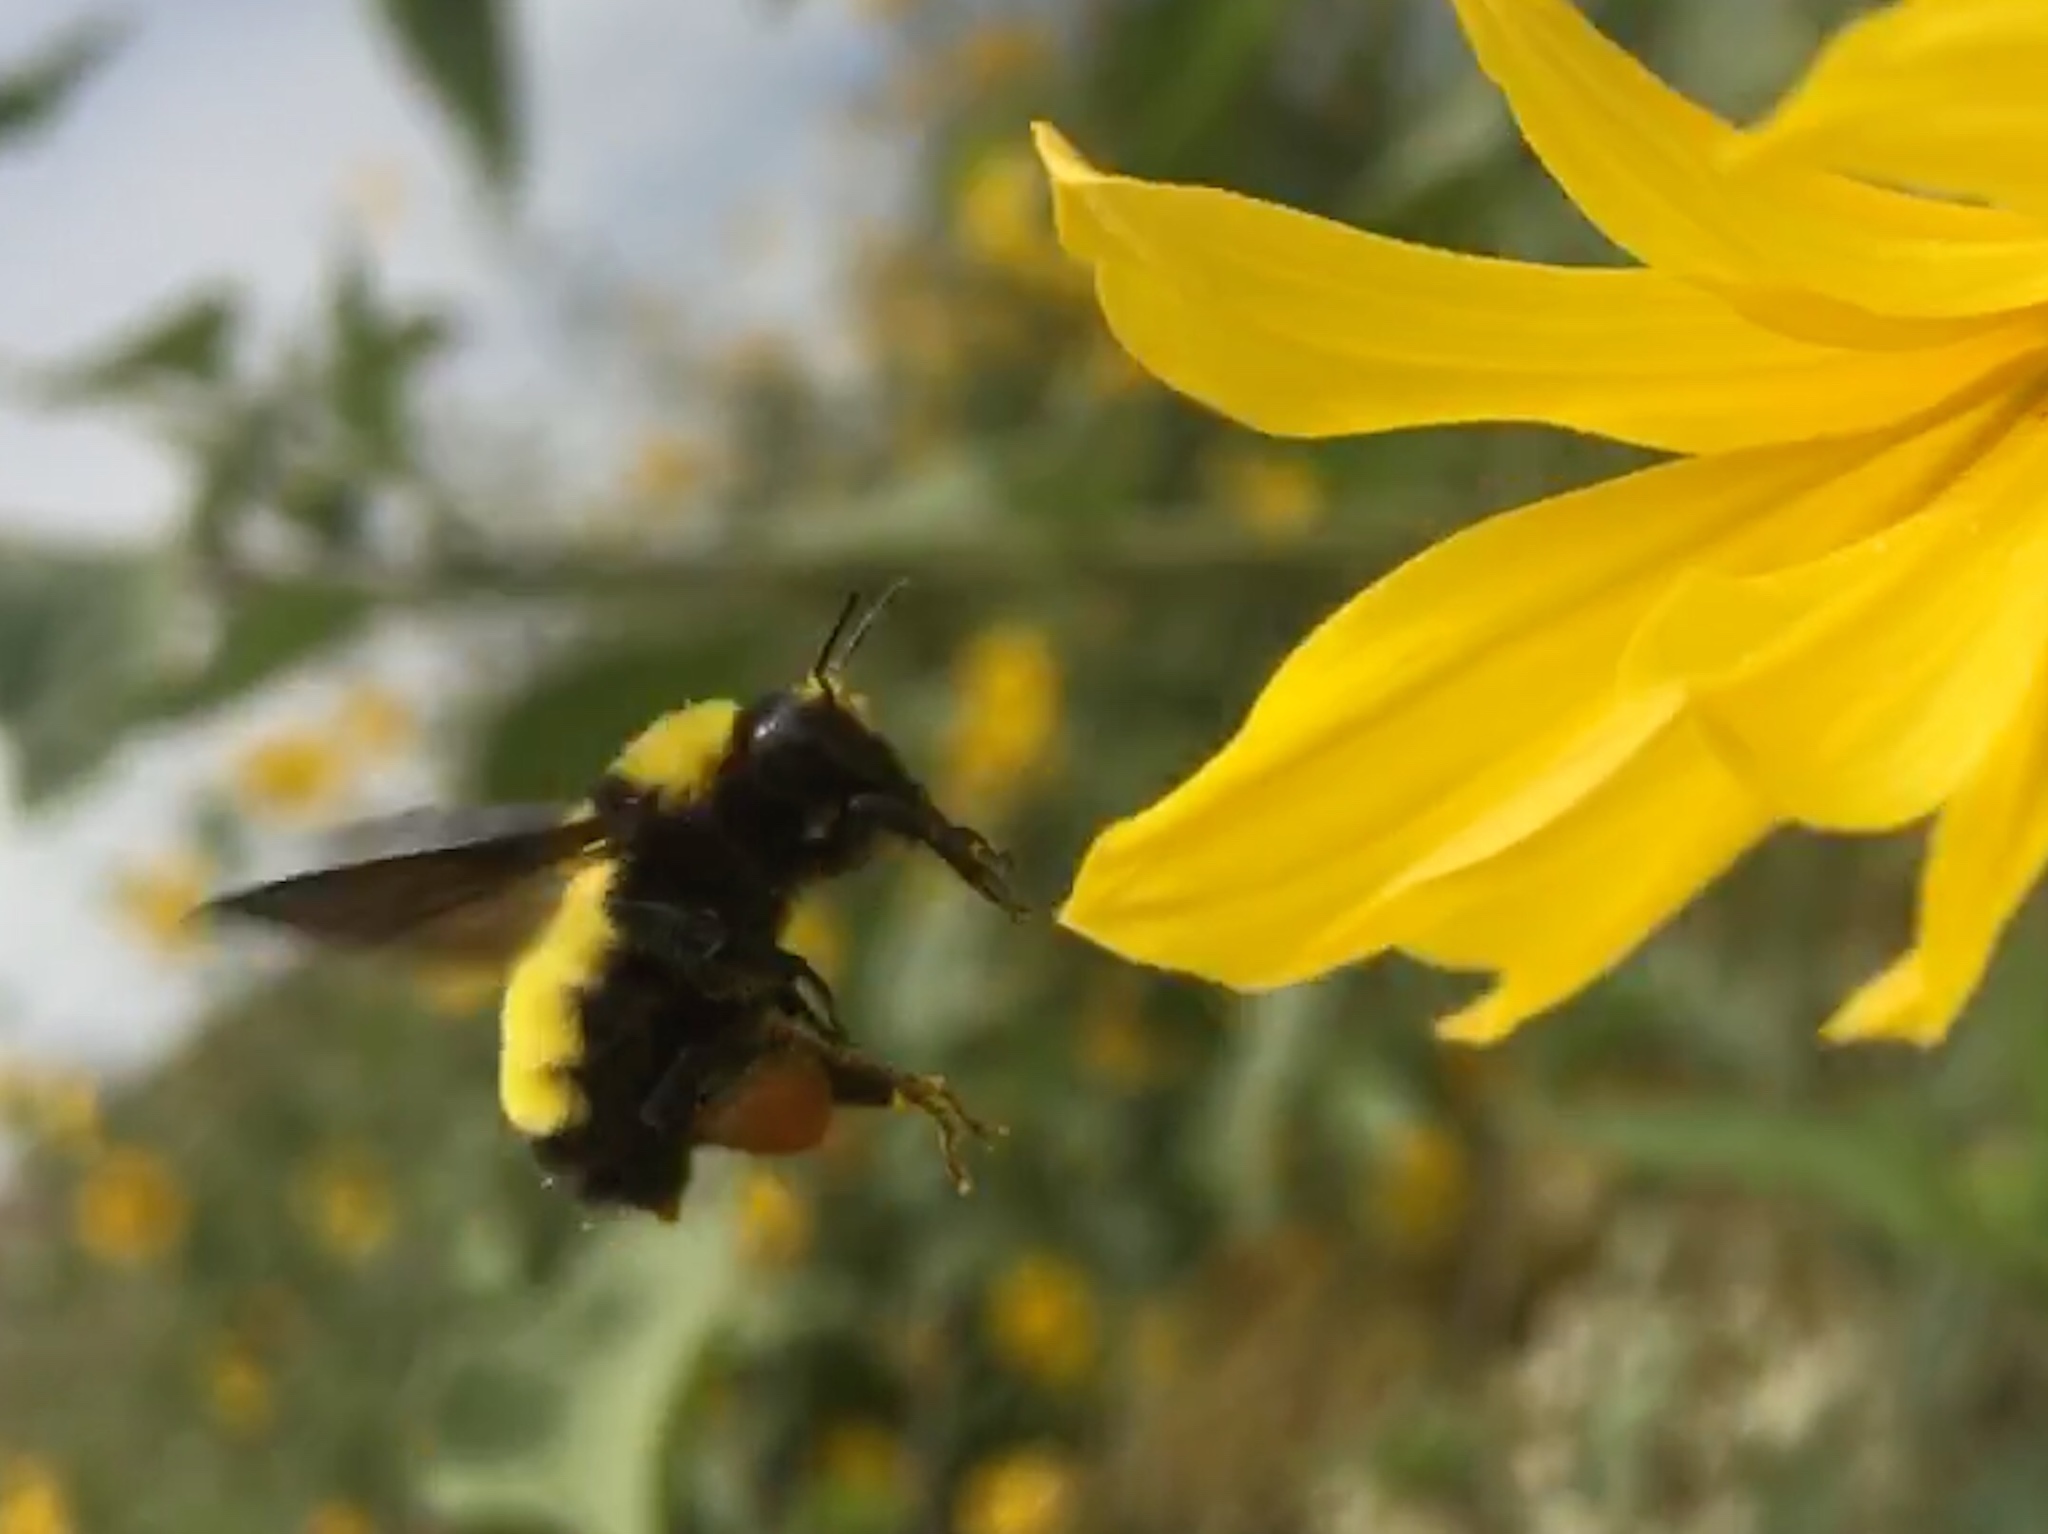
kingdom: Animalia
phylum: Arthropoda
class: Insecta
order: Hymenoptera
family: Apidae
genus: Bombus
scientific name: Bombus sonorus
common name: Sonoran bumble bee
